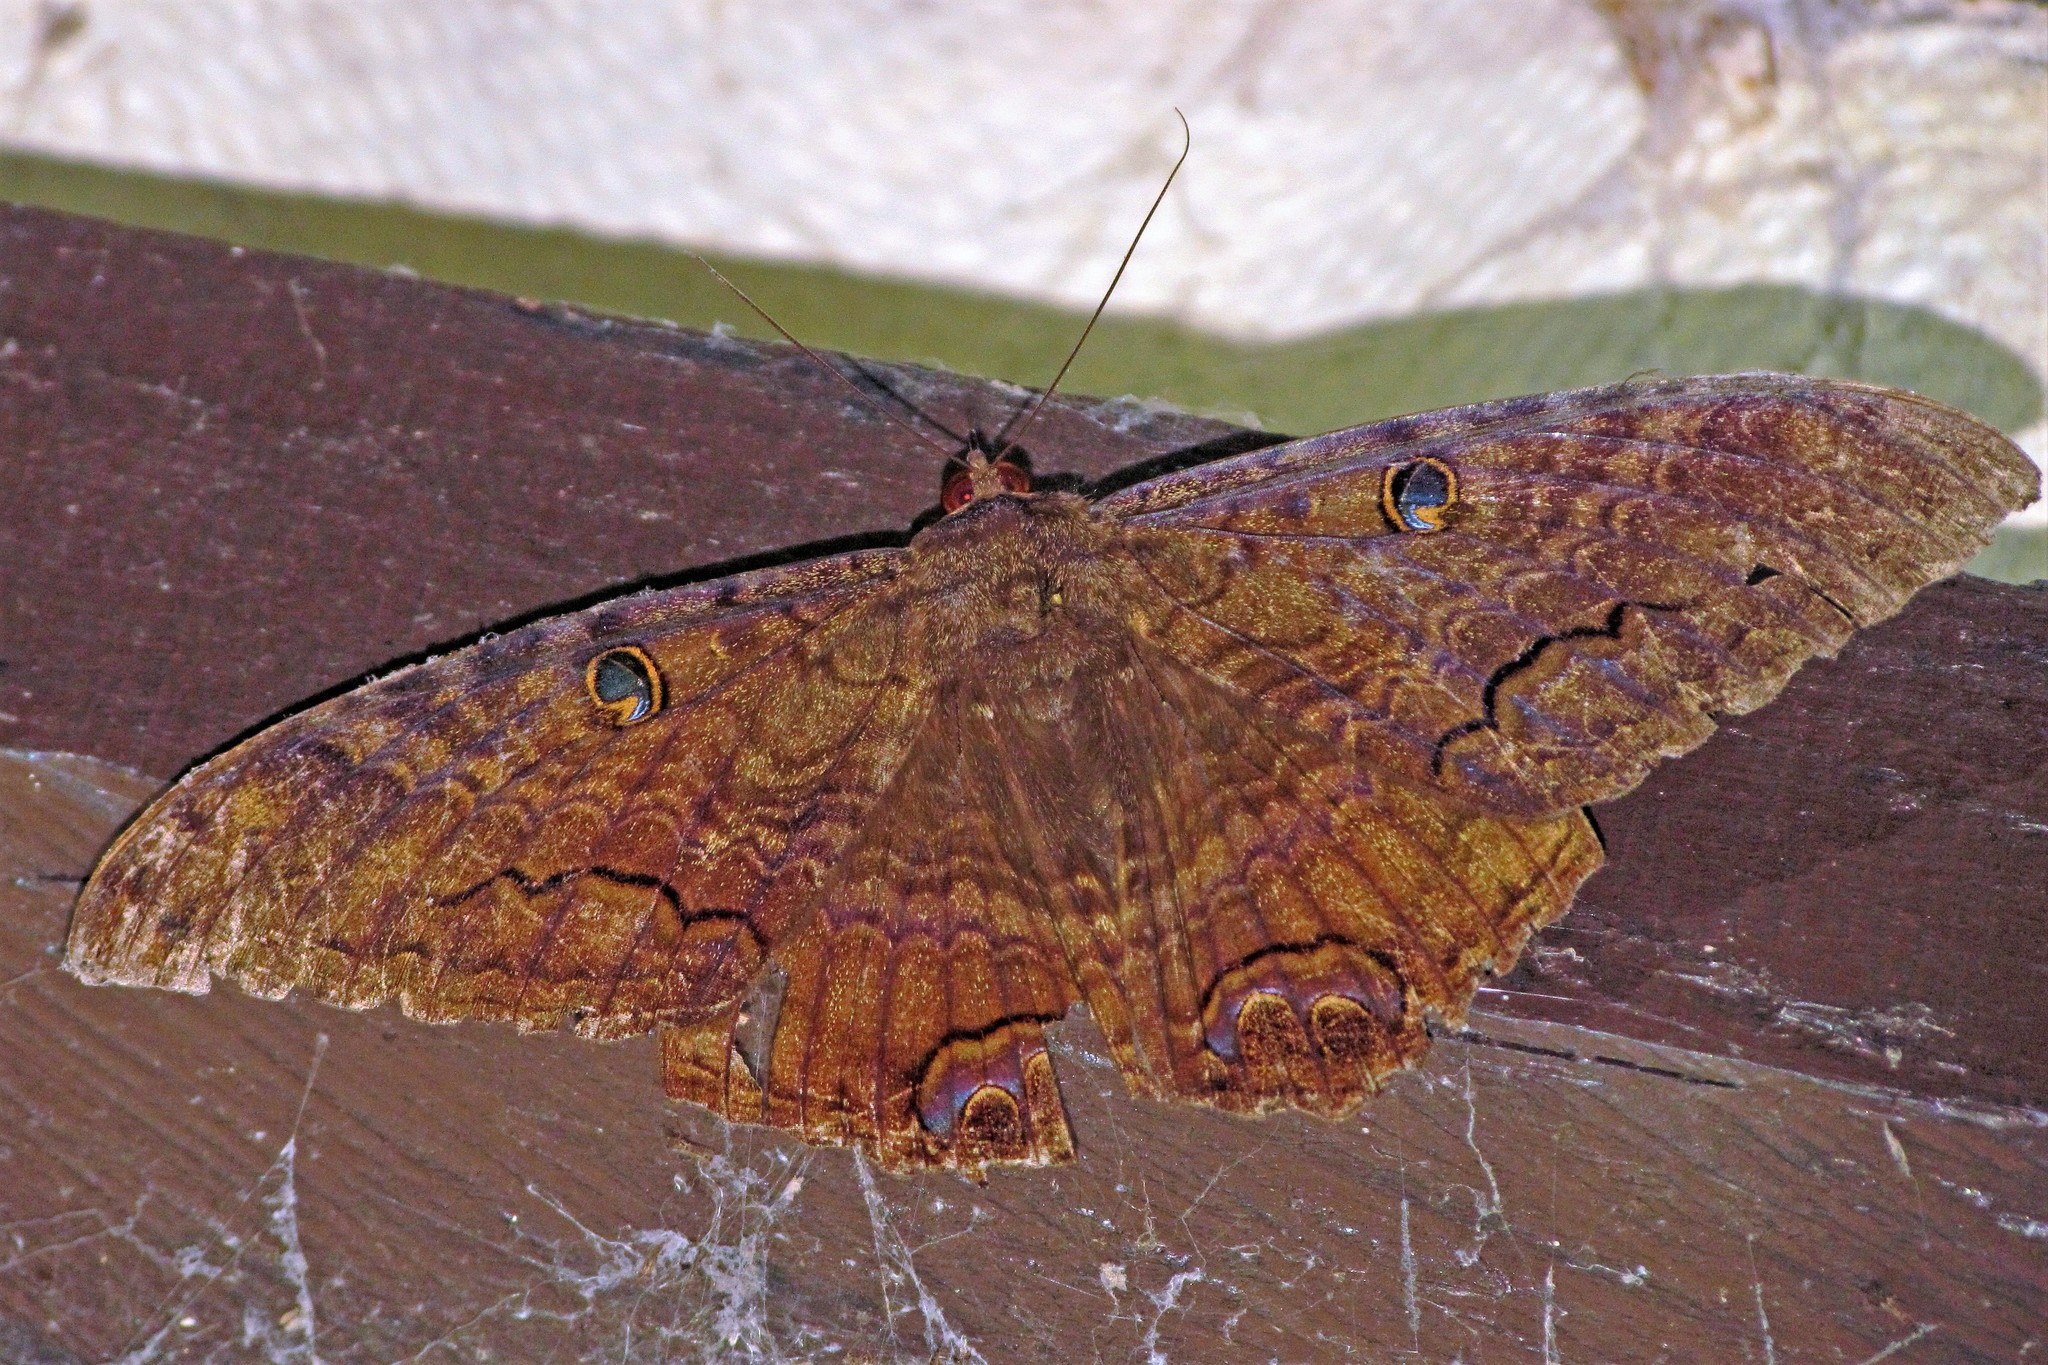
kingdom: Animalia
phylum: Arthropoda
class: Insecta
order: Lepidoptera
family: Erebidae
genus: Ascalapha
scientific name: Ascalapha odorata
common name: Black witch
